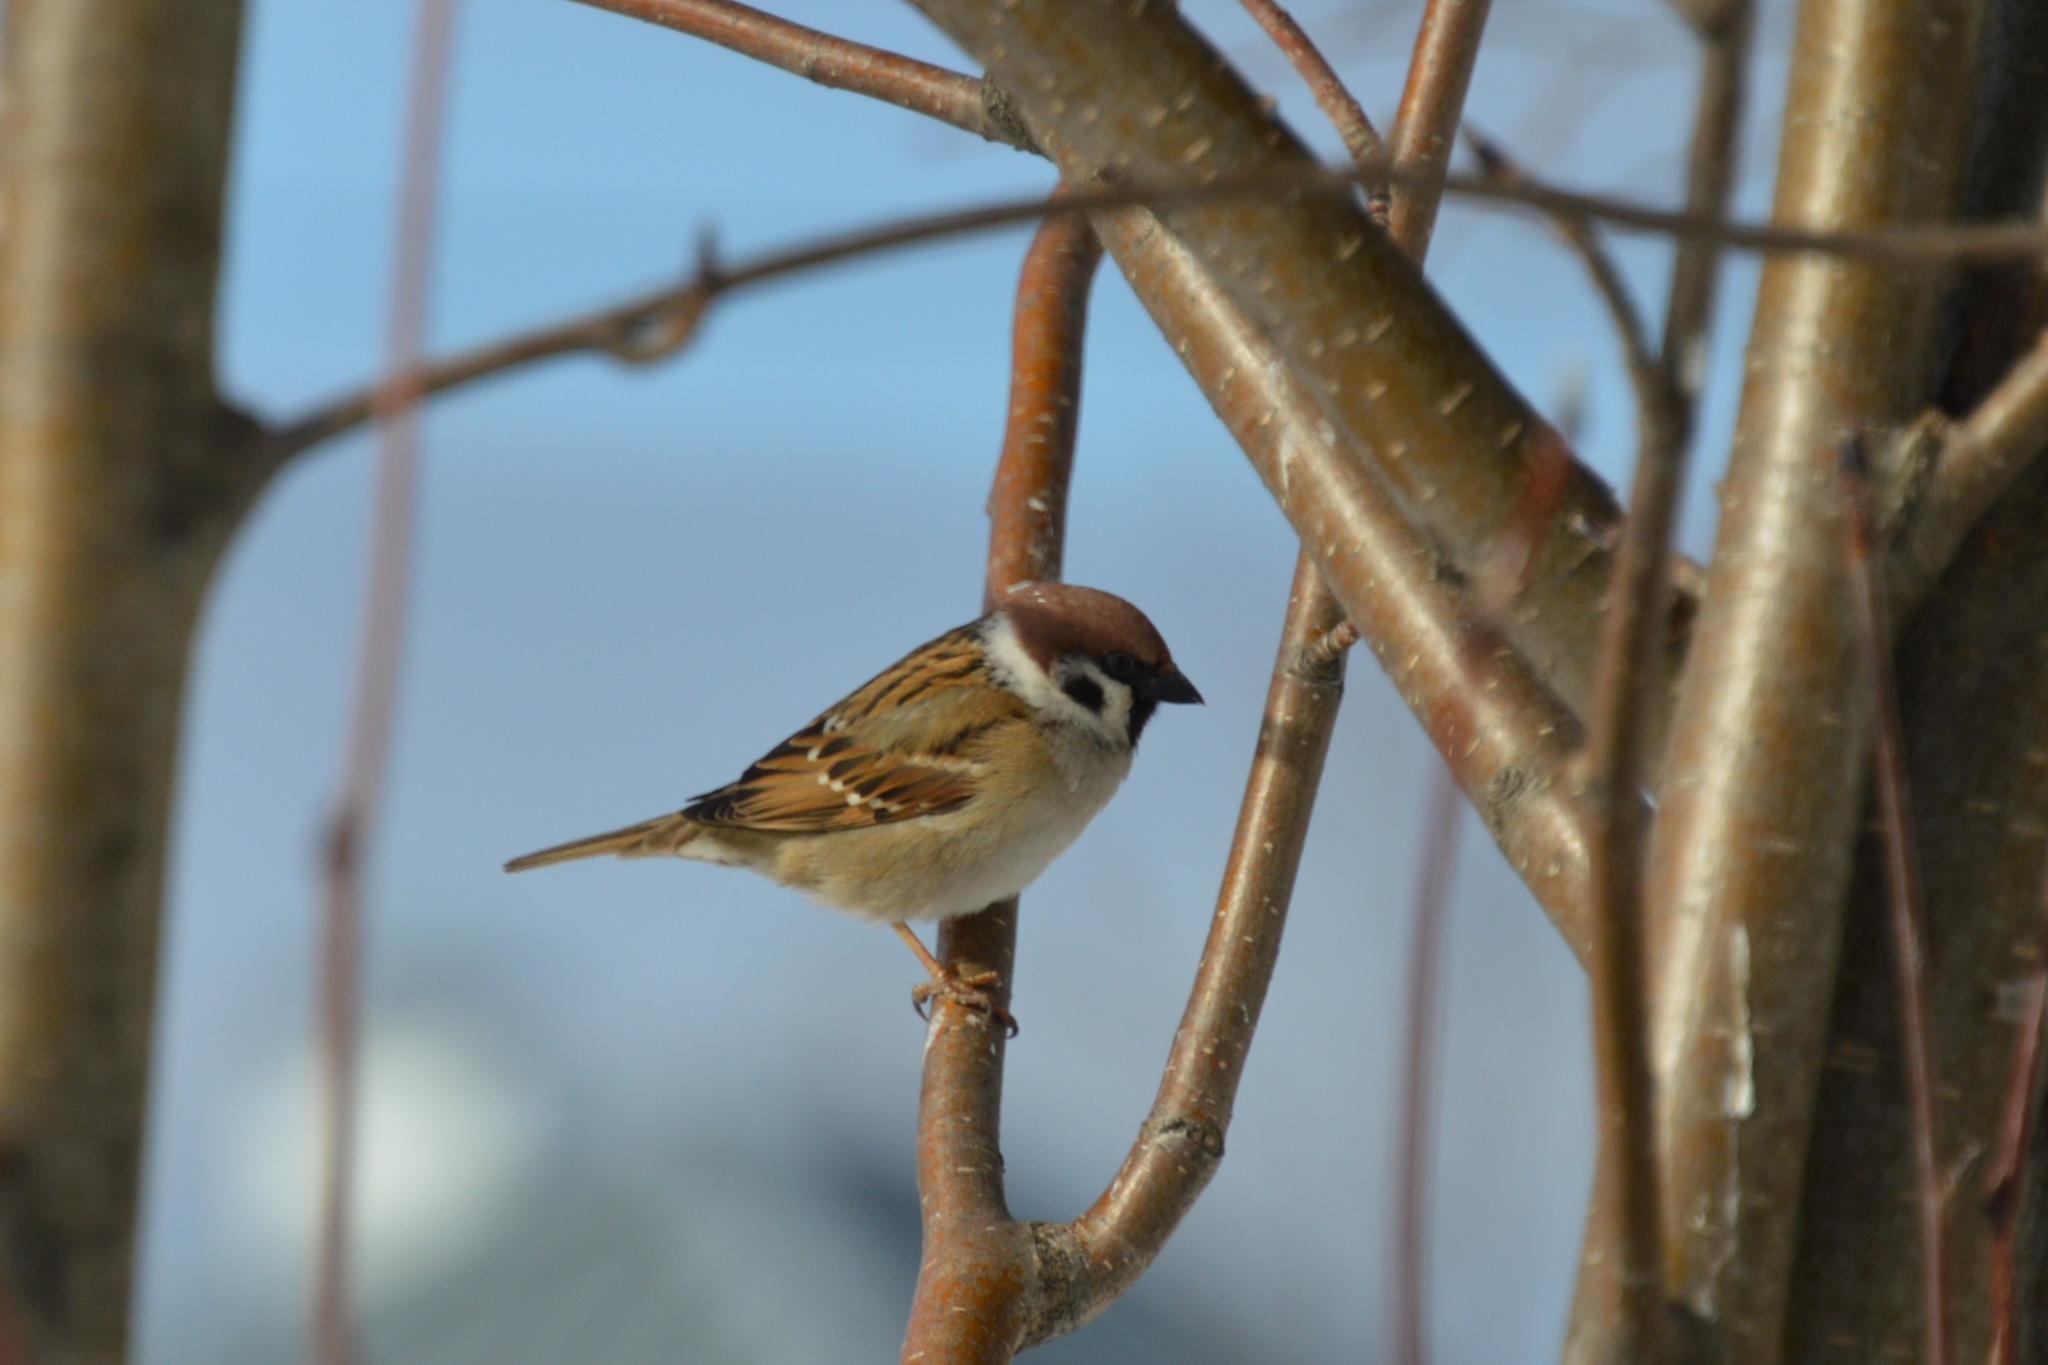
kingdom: Animalia
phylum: Chordata
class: Aves
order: Passeriformes
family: Passeridae
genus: Passer
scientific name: Passer montanus
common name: Eurasian tree sparrow
